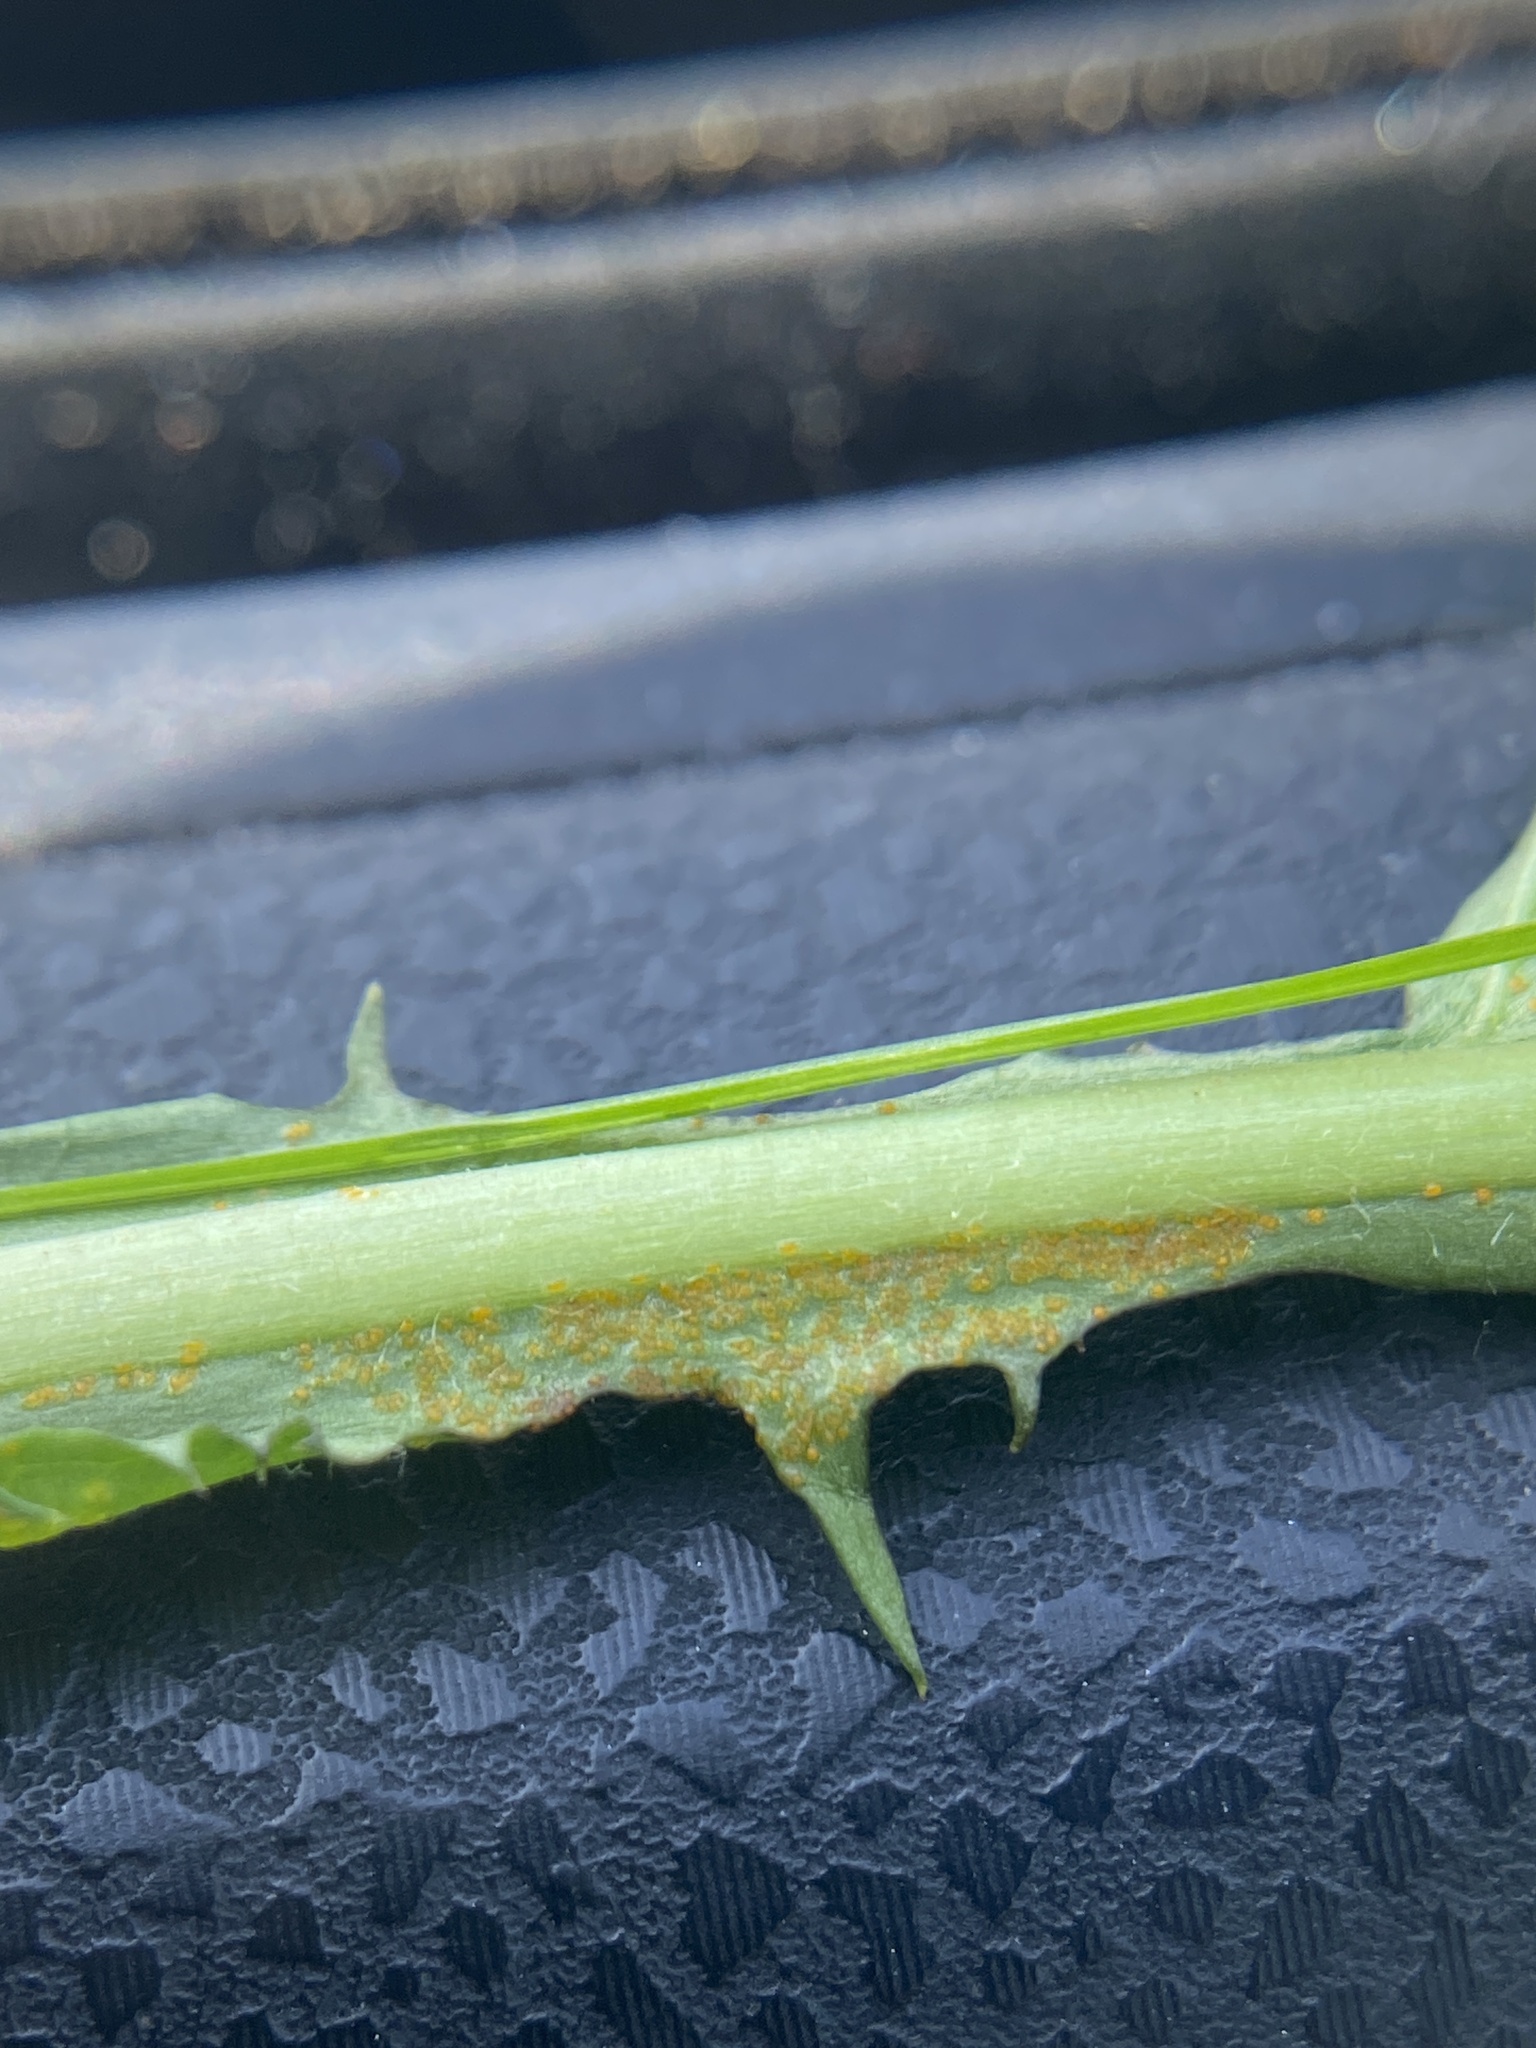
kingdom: Fungi
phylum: Chytridiomycota
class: Chytridiomycetes
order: Chytridiales
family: Synchytriaceae
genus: Synchytrium
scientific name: Synchytrium taraxaci
